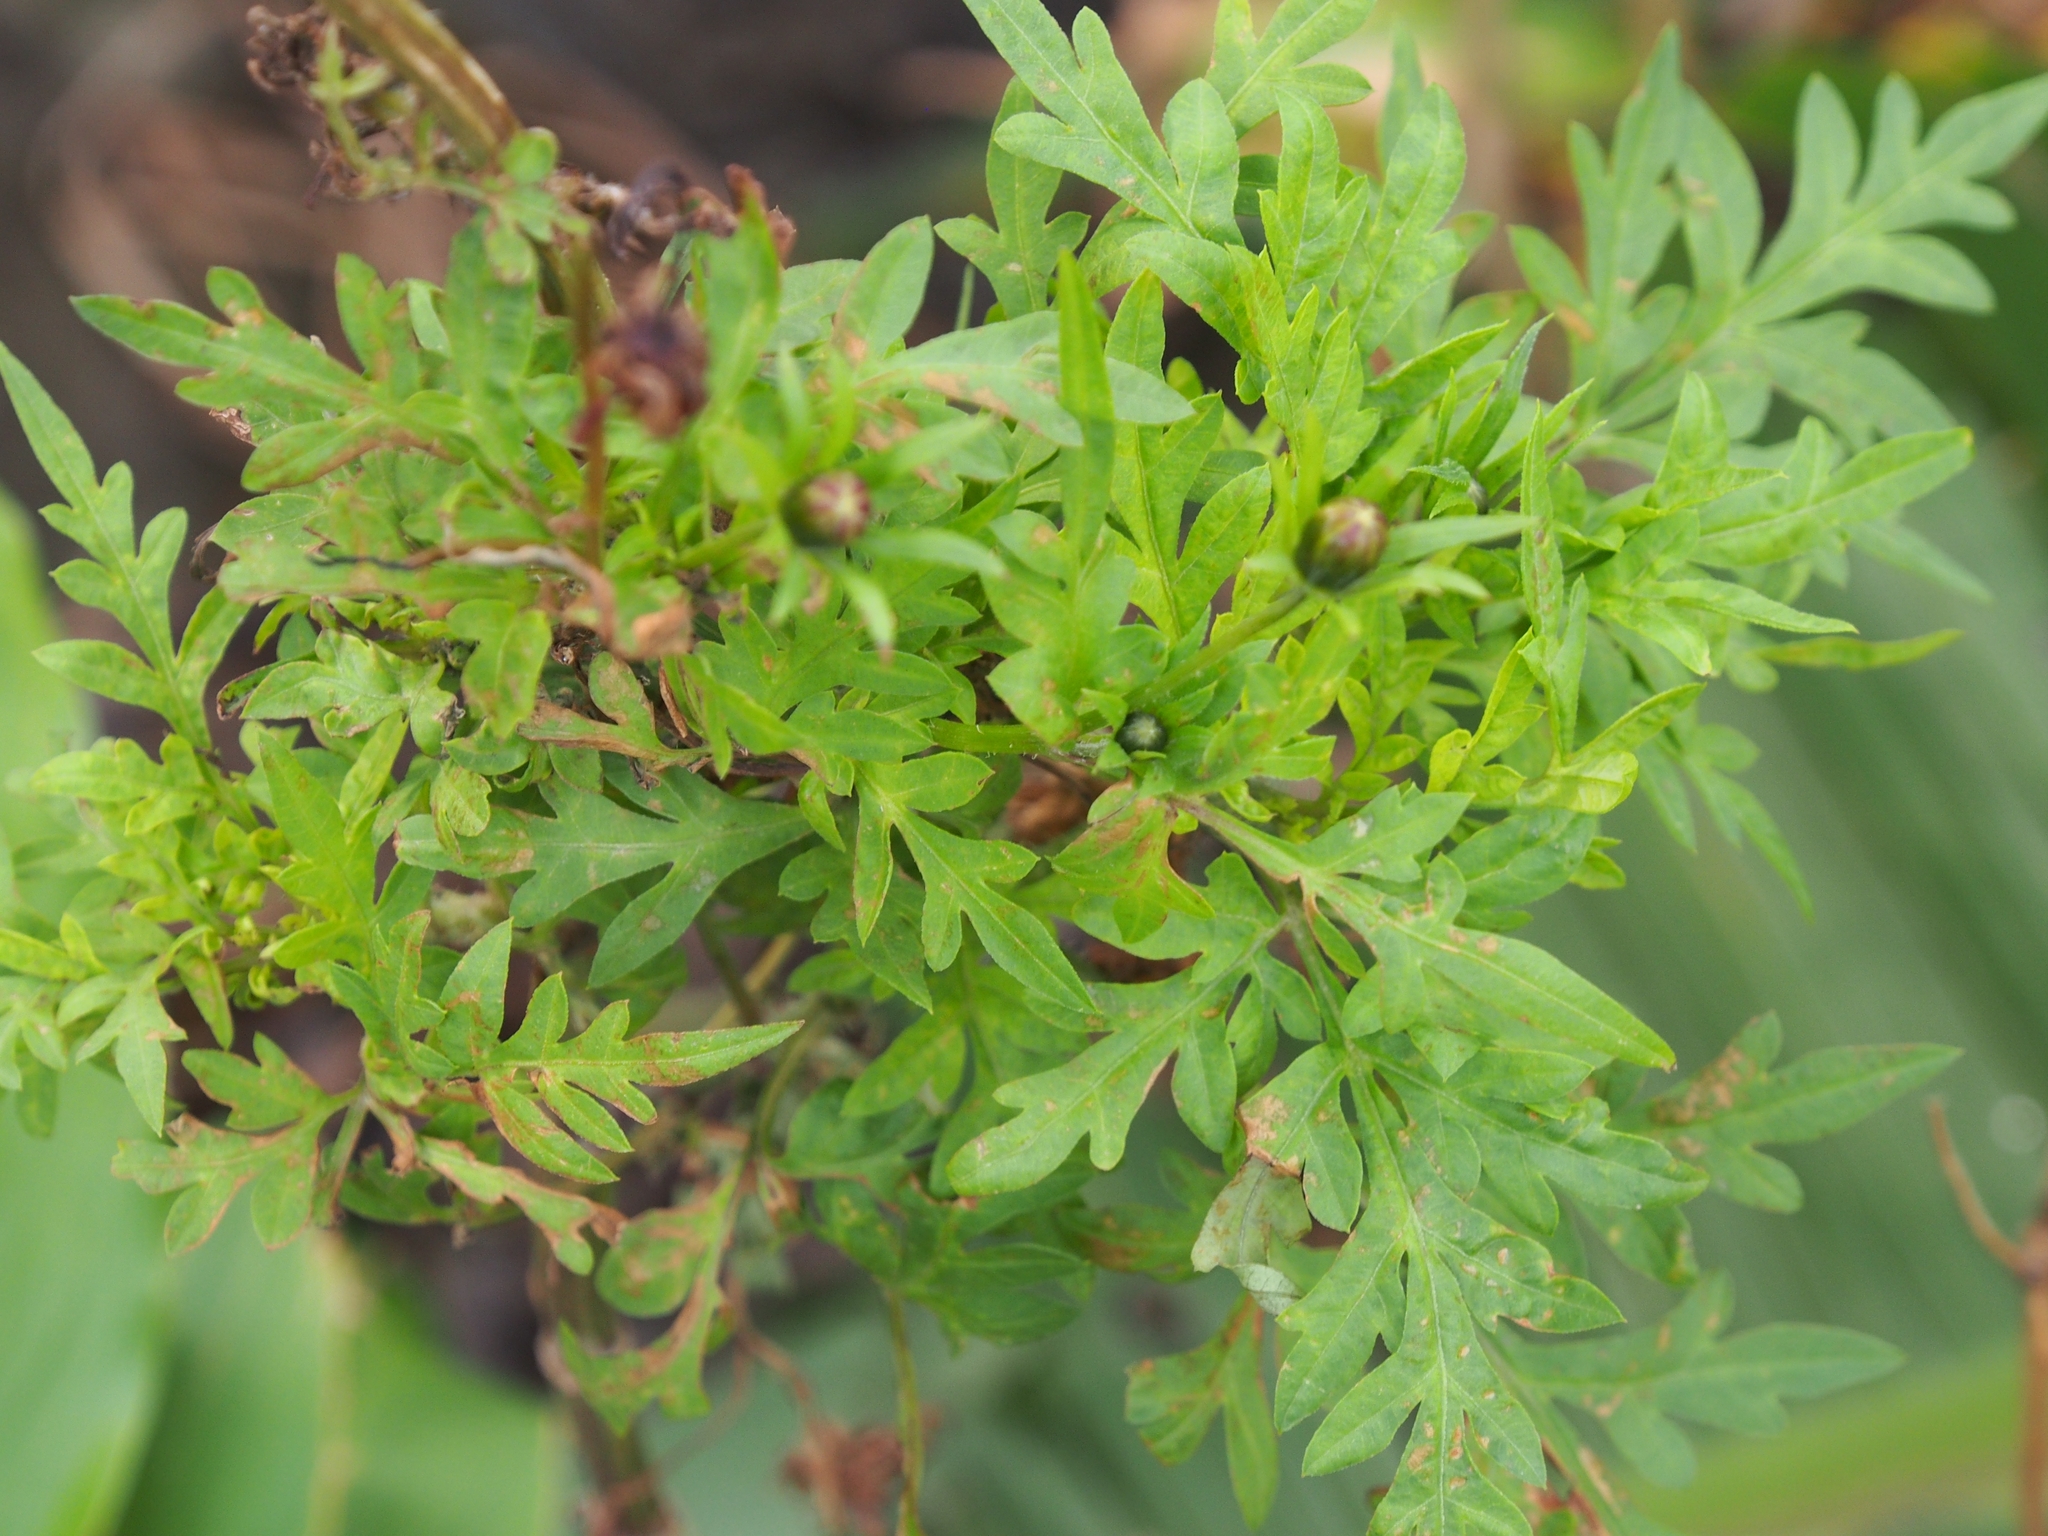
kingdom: Plantae
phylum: Tracheophyta
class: Magnoliopsida
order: Asterales
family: Asteraceae
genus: Cosmos
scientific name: Cosmos sulphureus
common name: Sulphur cosmos
